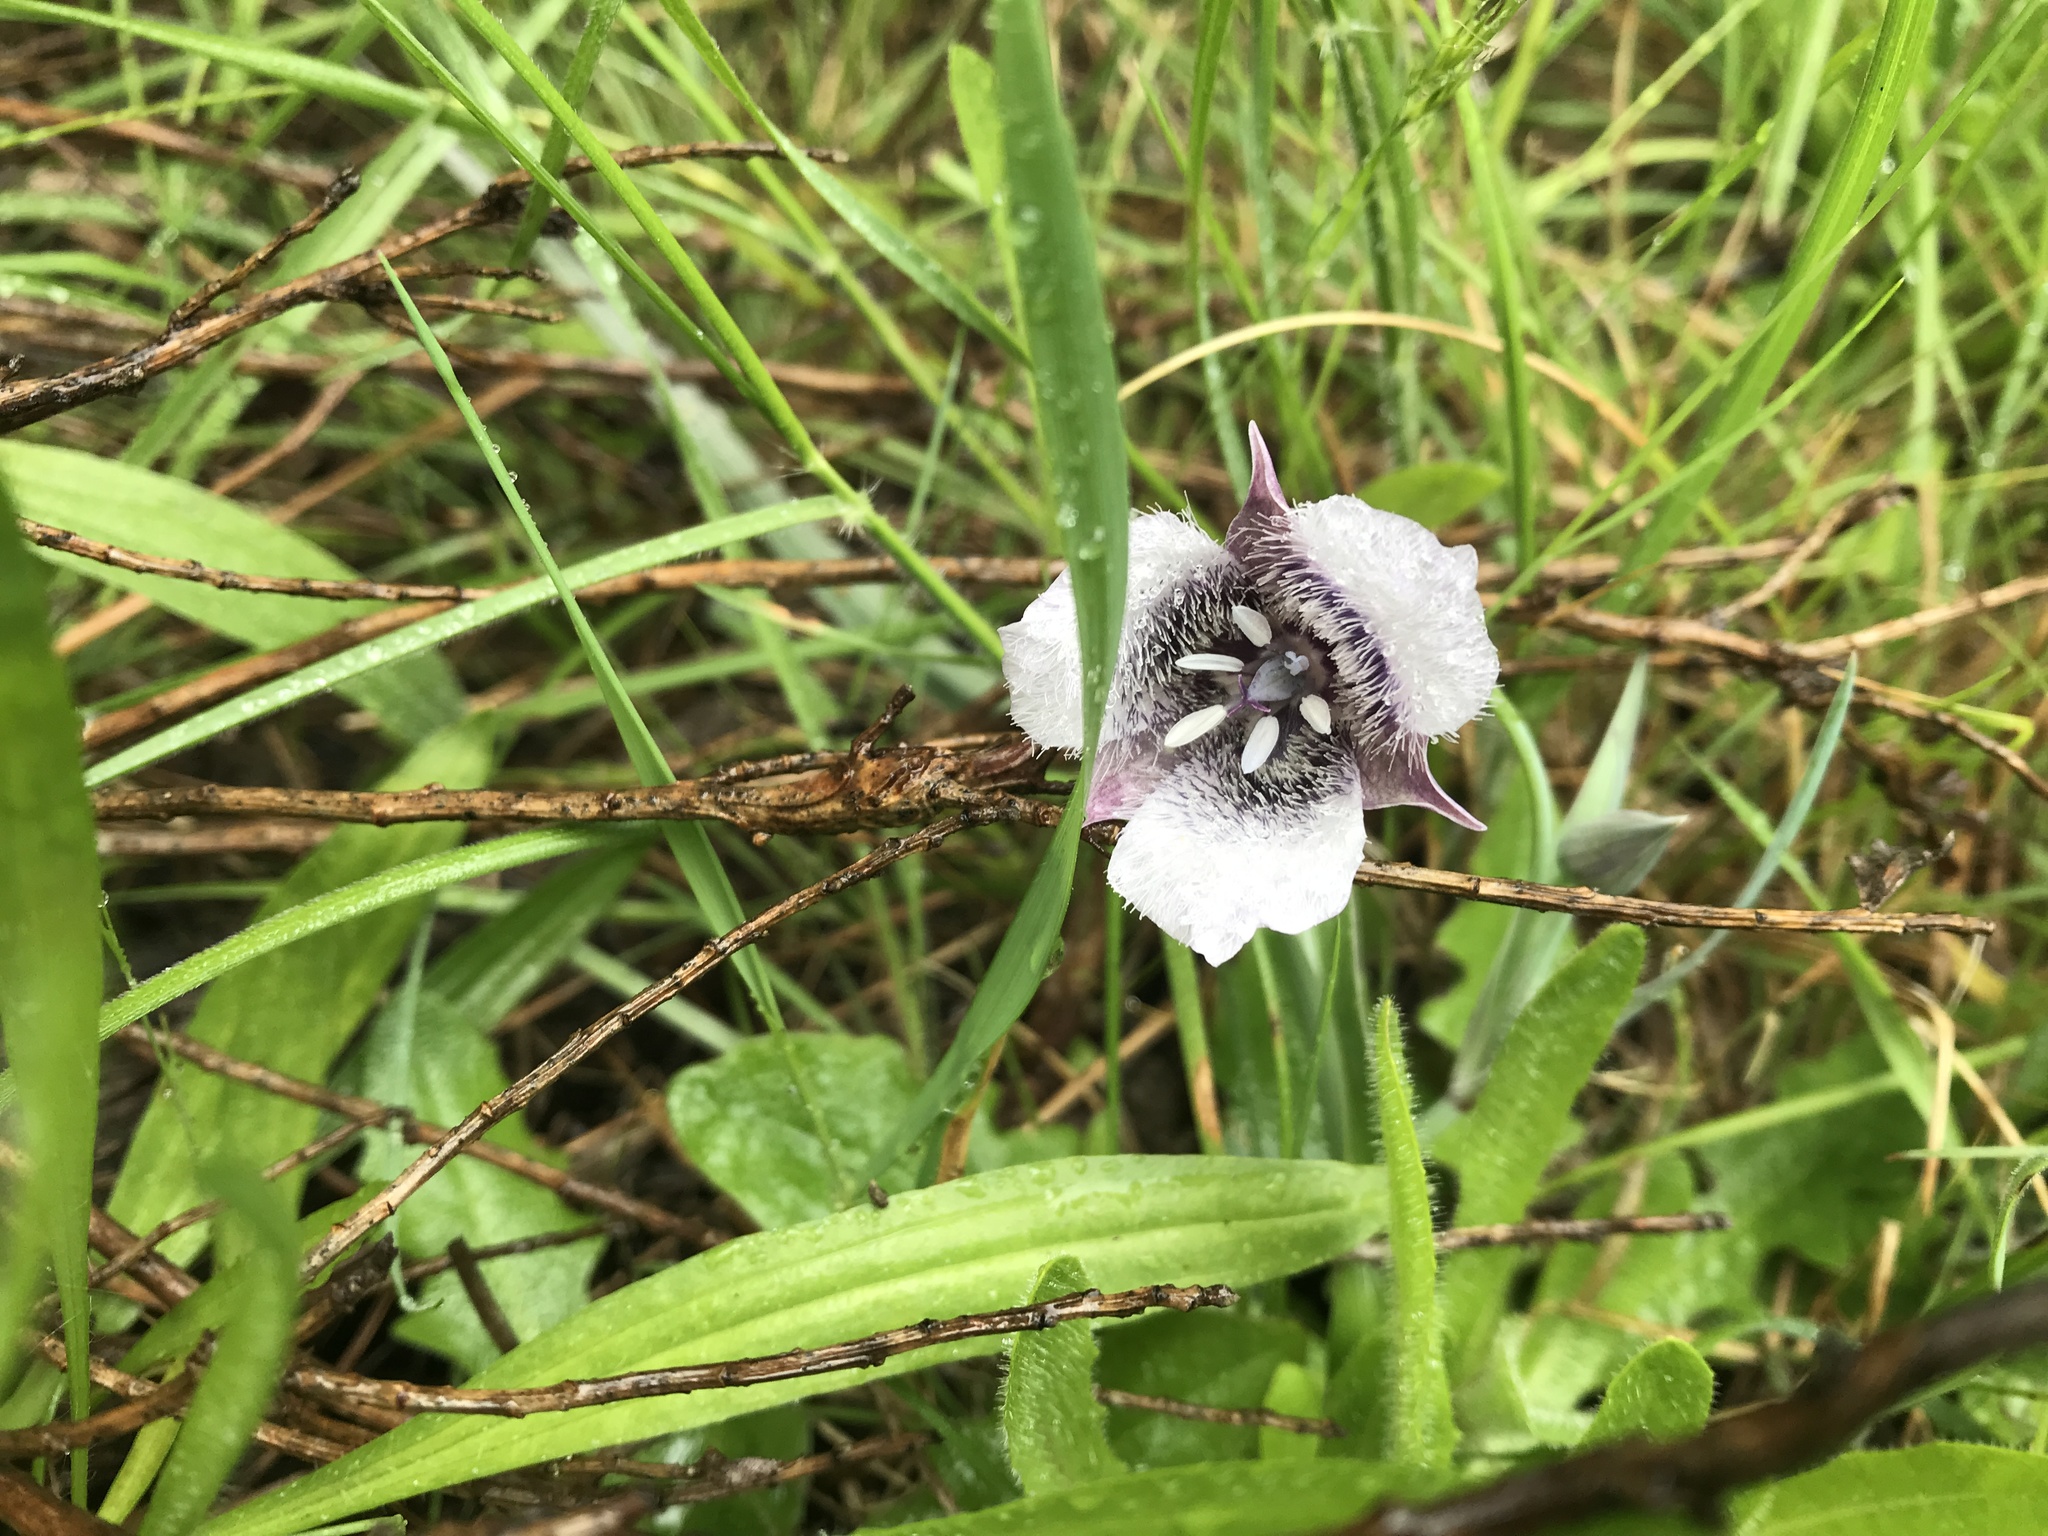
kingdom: Plantae
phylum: Tracheophyta
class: Liliopsida
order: Liliales
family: Liliaceae
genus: Calochortus
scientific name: Calochortus tolmiei
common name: Pussy-ears
